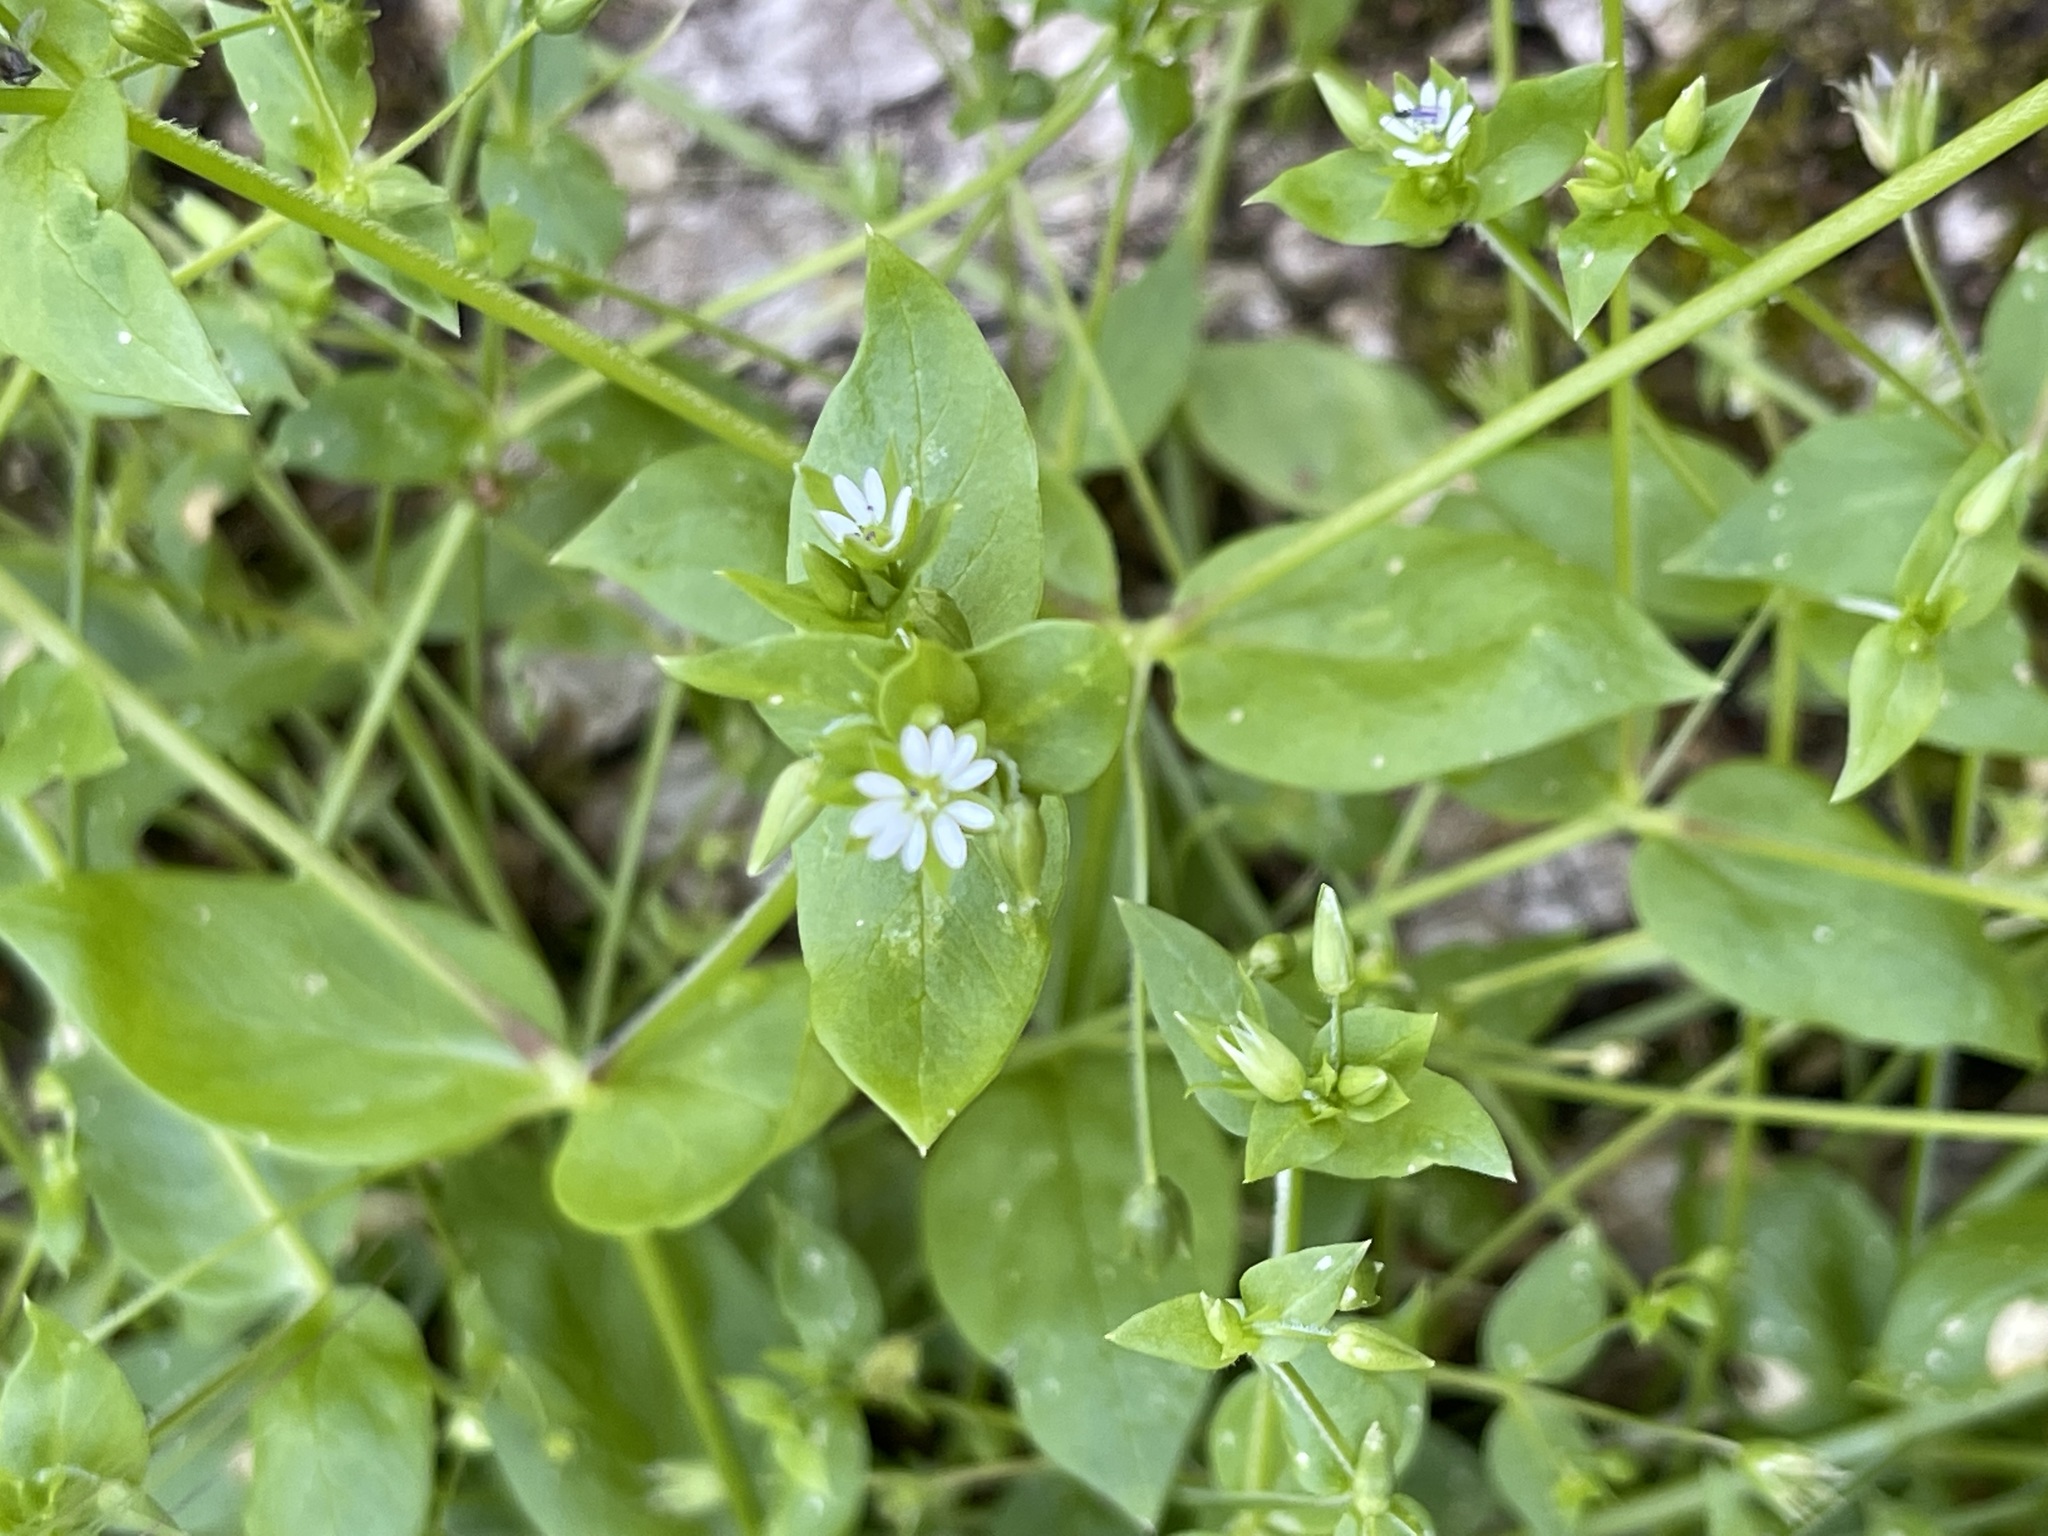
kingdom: Plantae
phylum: Tracheophyta
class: Magnoliopsida
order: Caryophyllales
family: Caryophyllaceae
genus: Stellaria
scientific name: Stellaria media
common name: Common chickweed
